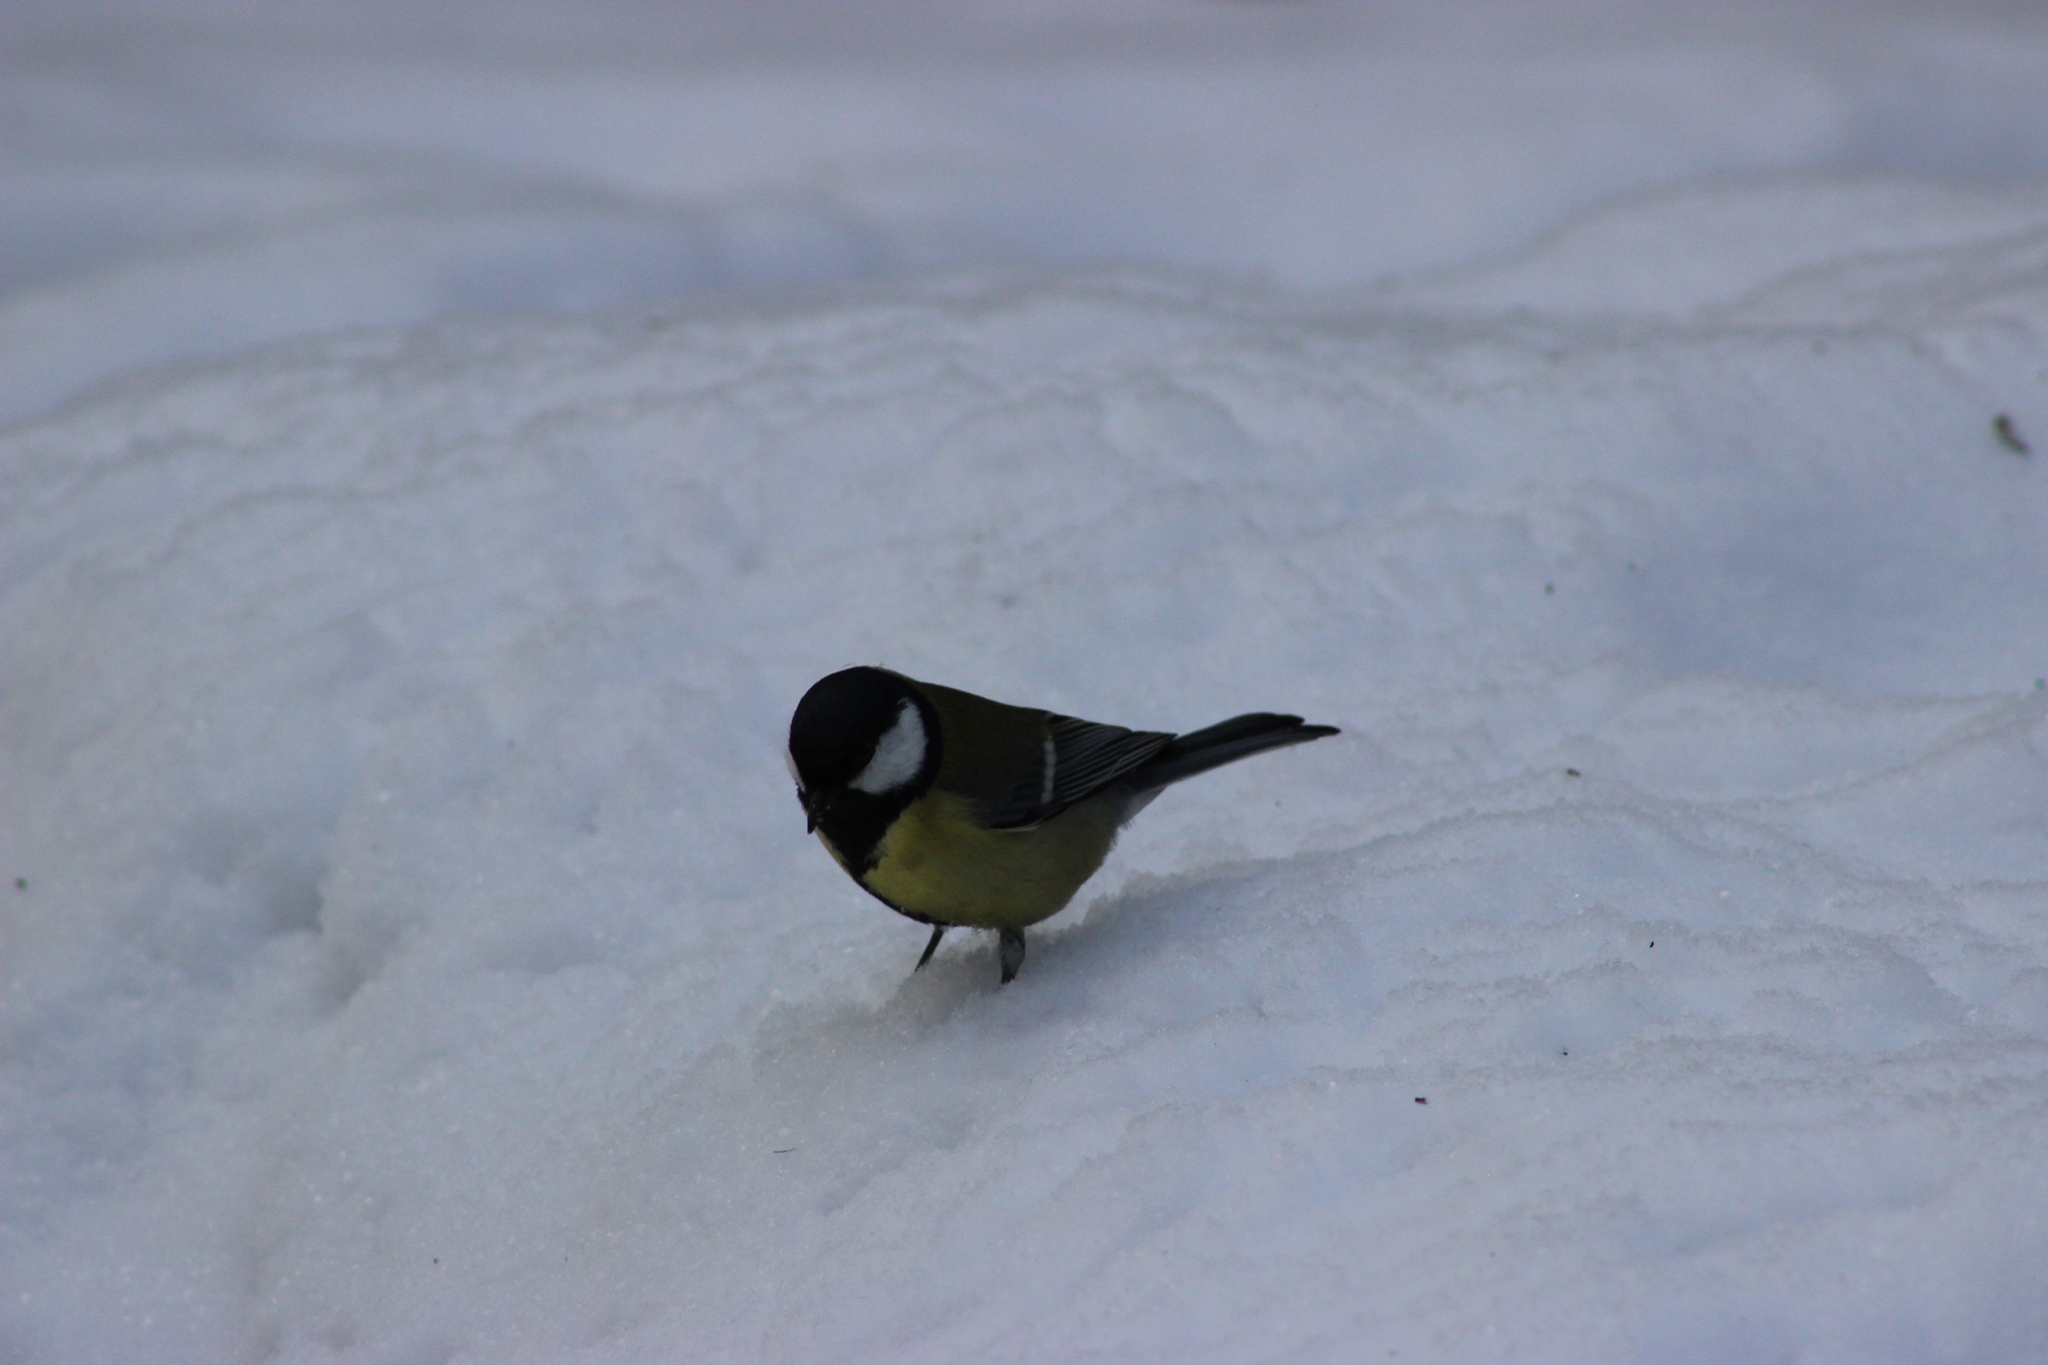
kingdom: Animalia
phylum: Chordata
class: Aves
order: Passeriformes
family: Paridae
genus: Parus
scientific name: Parus major
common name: Great tit
